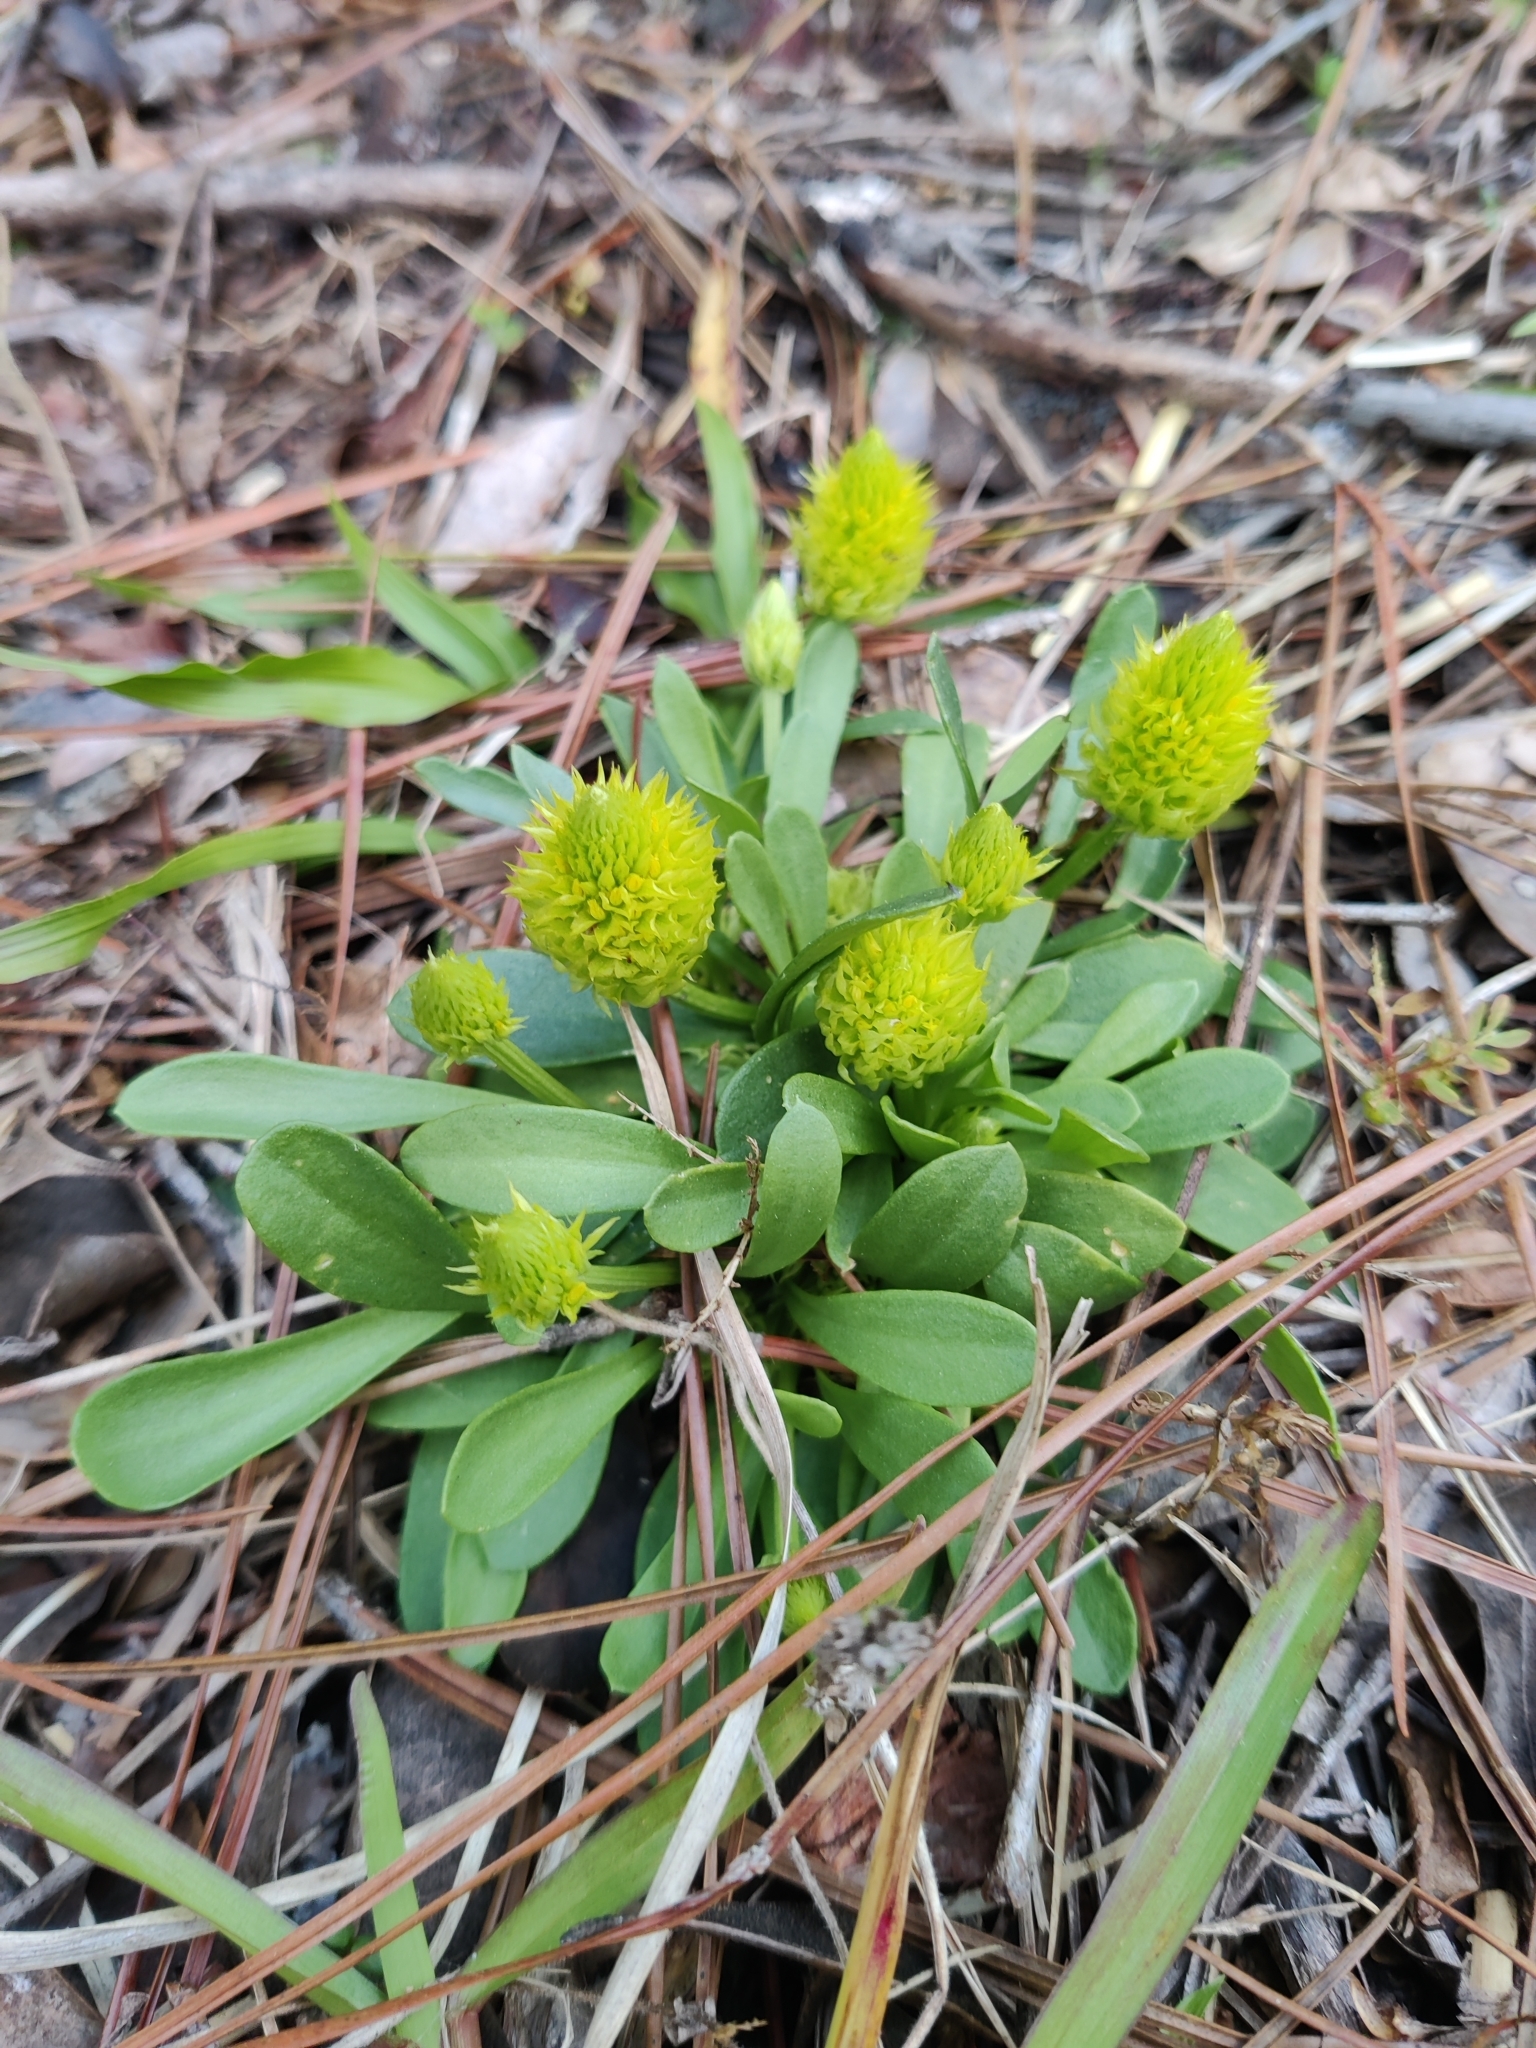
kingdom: Plantae
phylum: Tracheophyta
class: Magnoliopsida
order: Fabales
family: Polygalaceae
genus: Polygala
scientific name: Polygala nana
